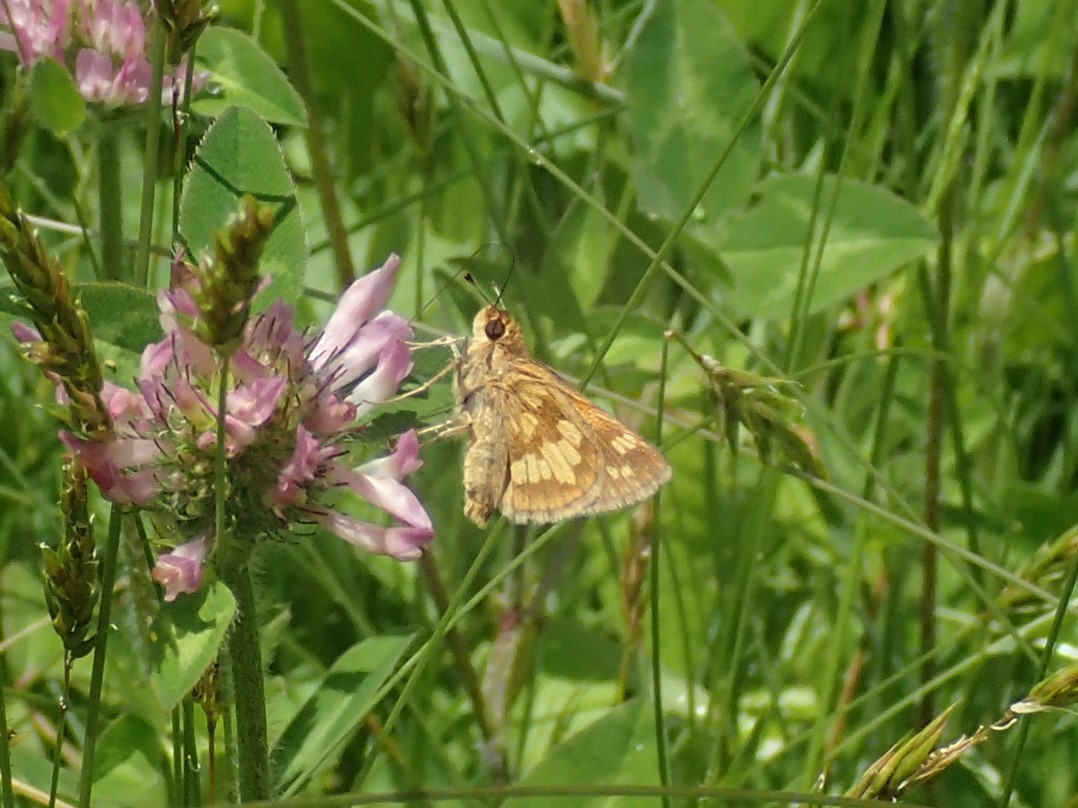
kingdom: Animalia
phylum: Arthropoda
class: Insecta
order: Lepidoptera
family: Hesperiidae
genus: Polites
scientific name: Polites coras
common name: Peck's skipper
